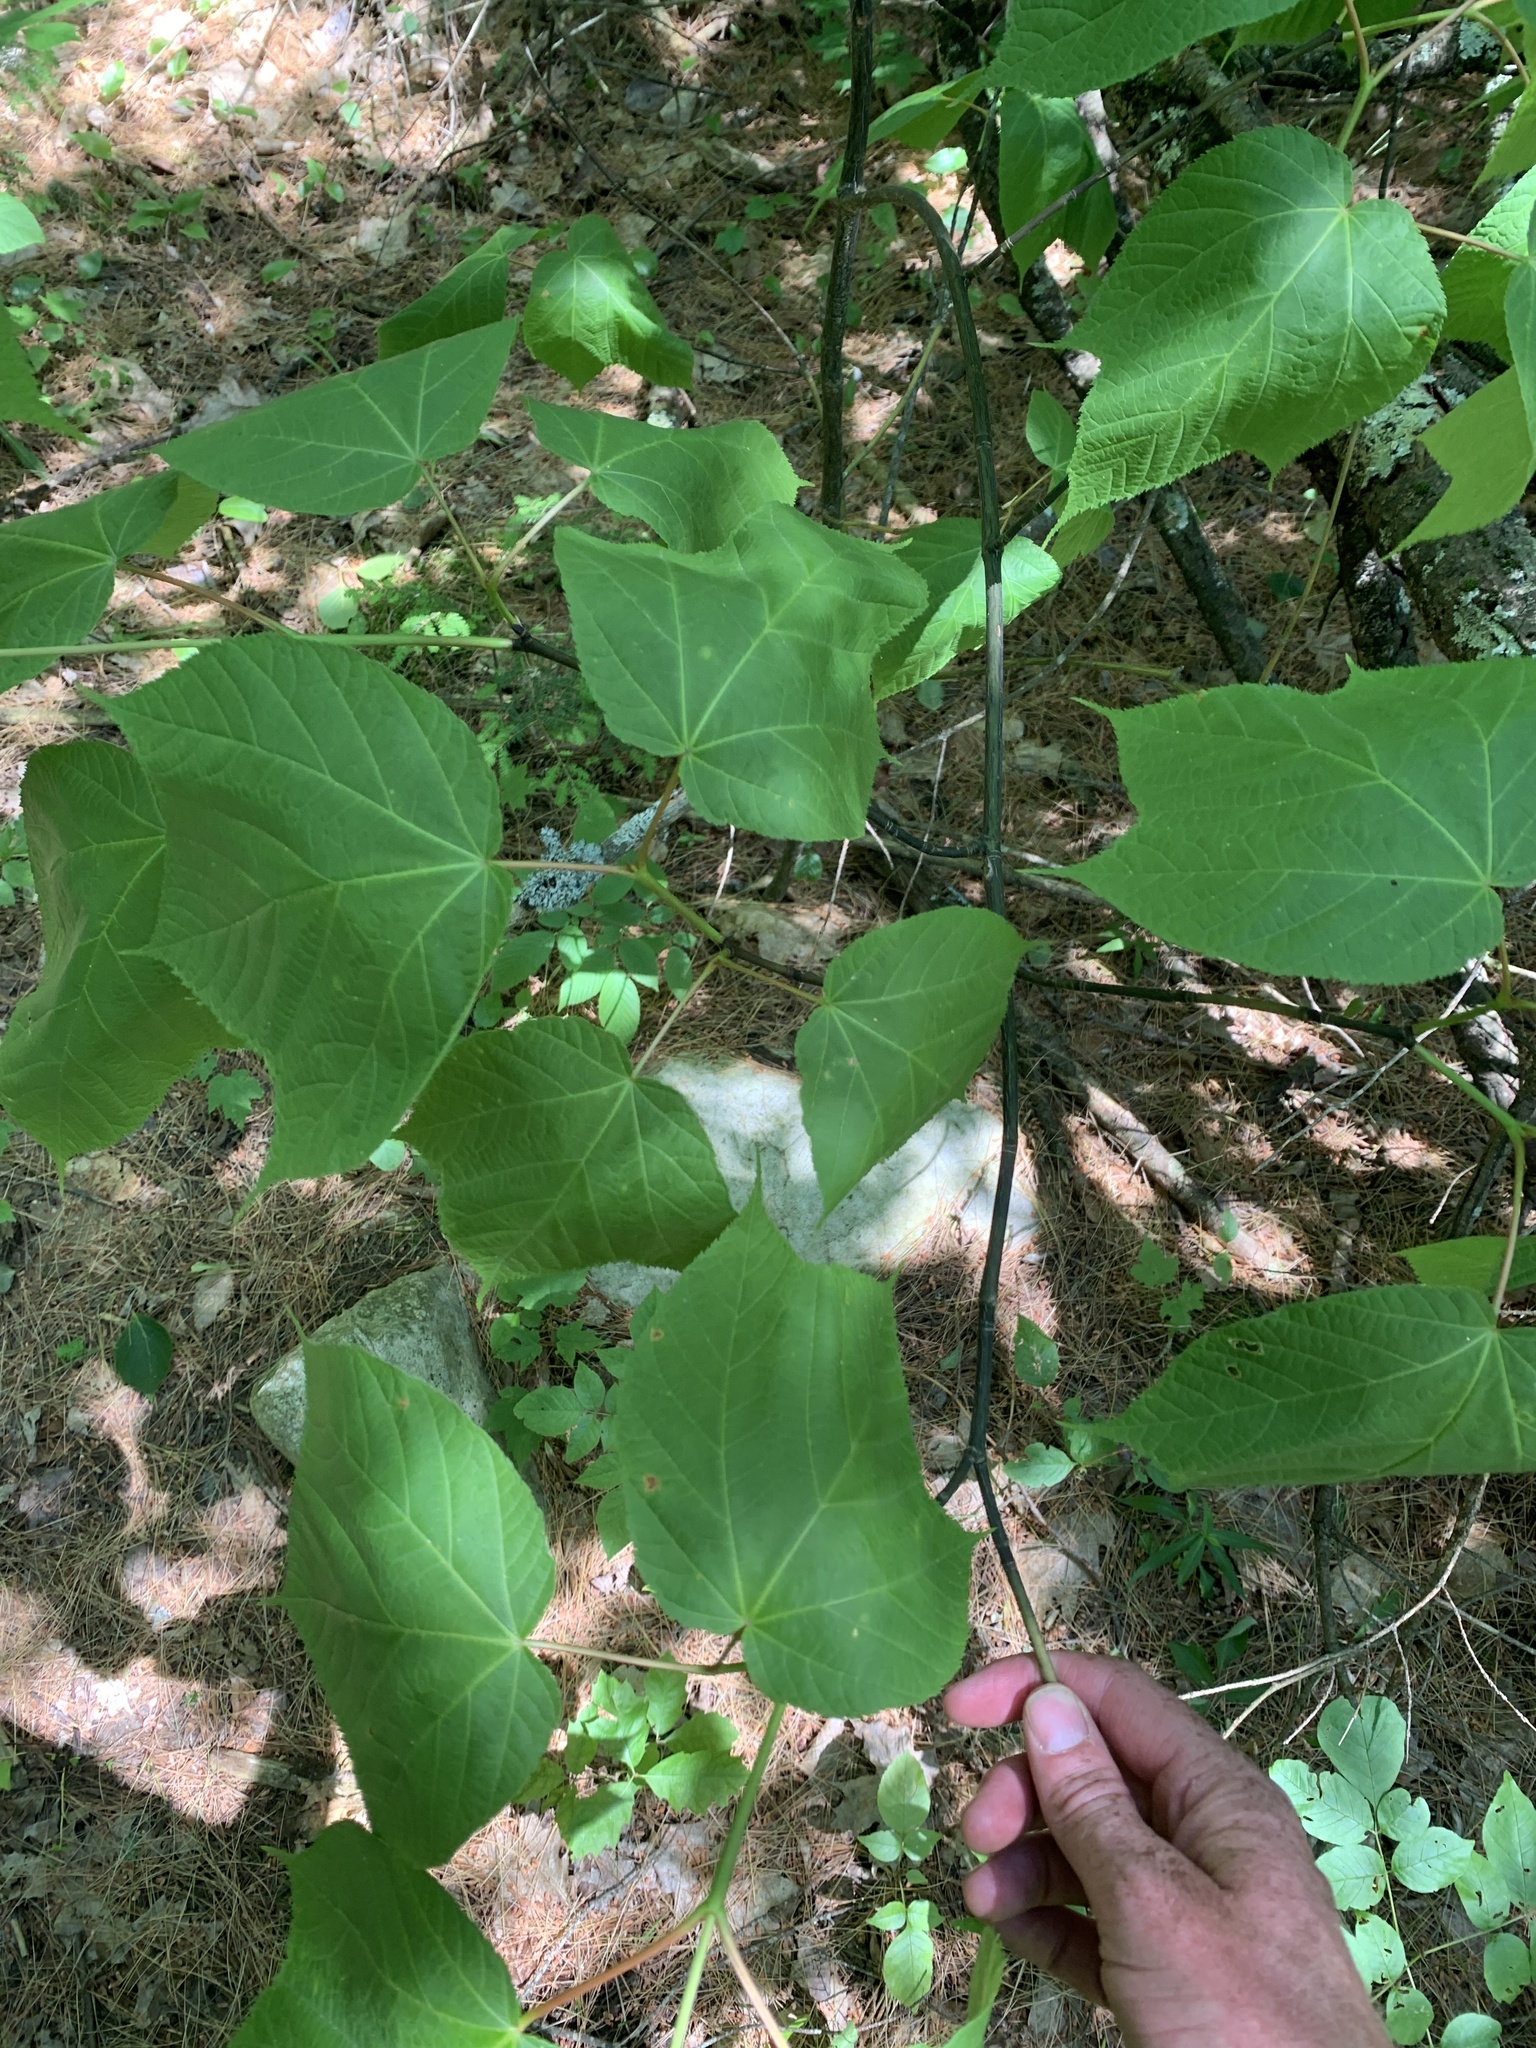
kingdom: Plantae
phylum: Tracheophyta
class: Magnoliopsida
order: Sapindales
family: Sapindaceae
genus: Acer
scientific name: Acer pensylvanicum
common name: Moosewood
